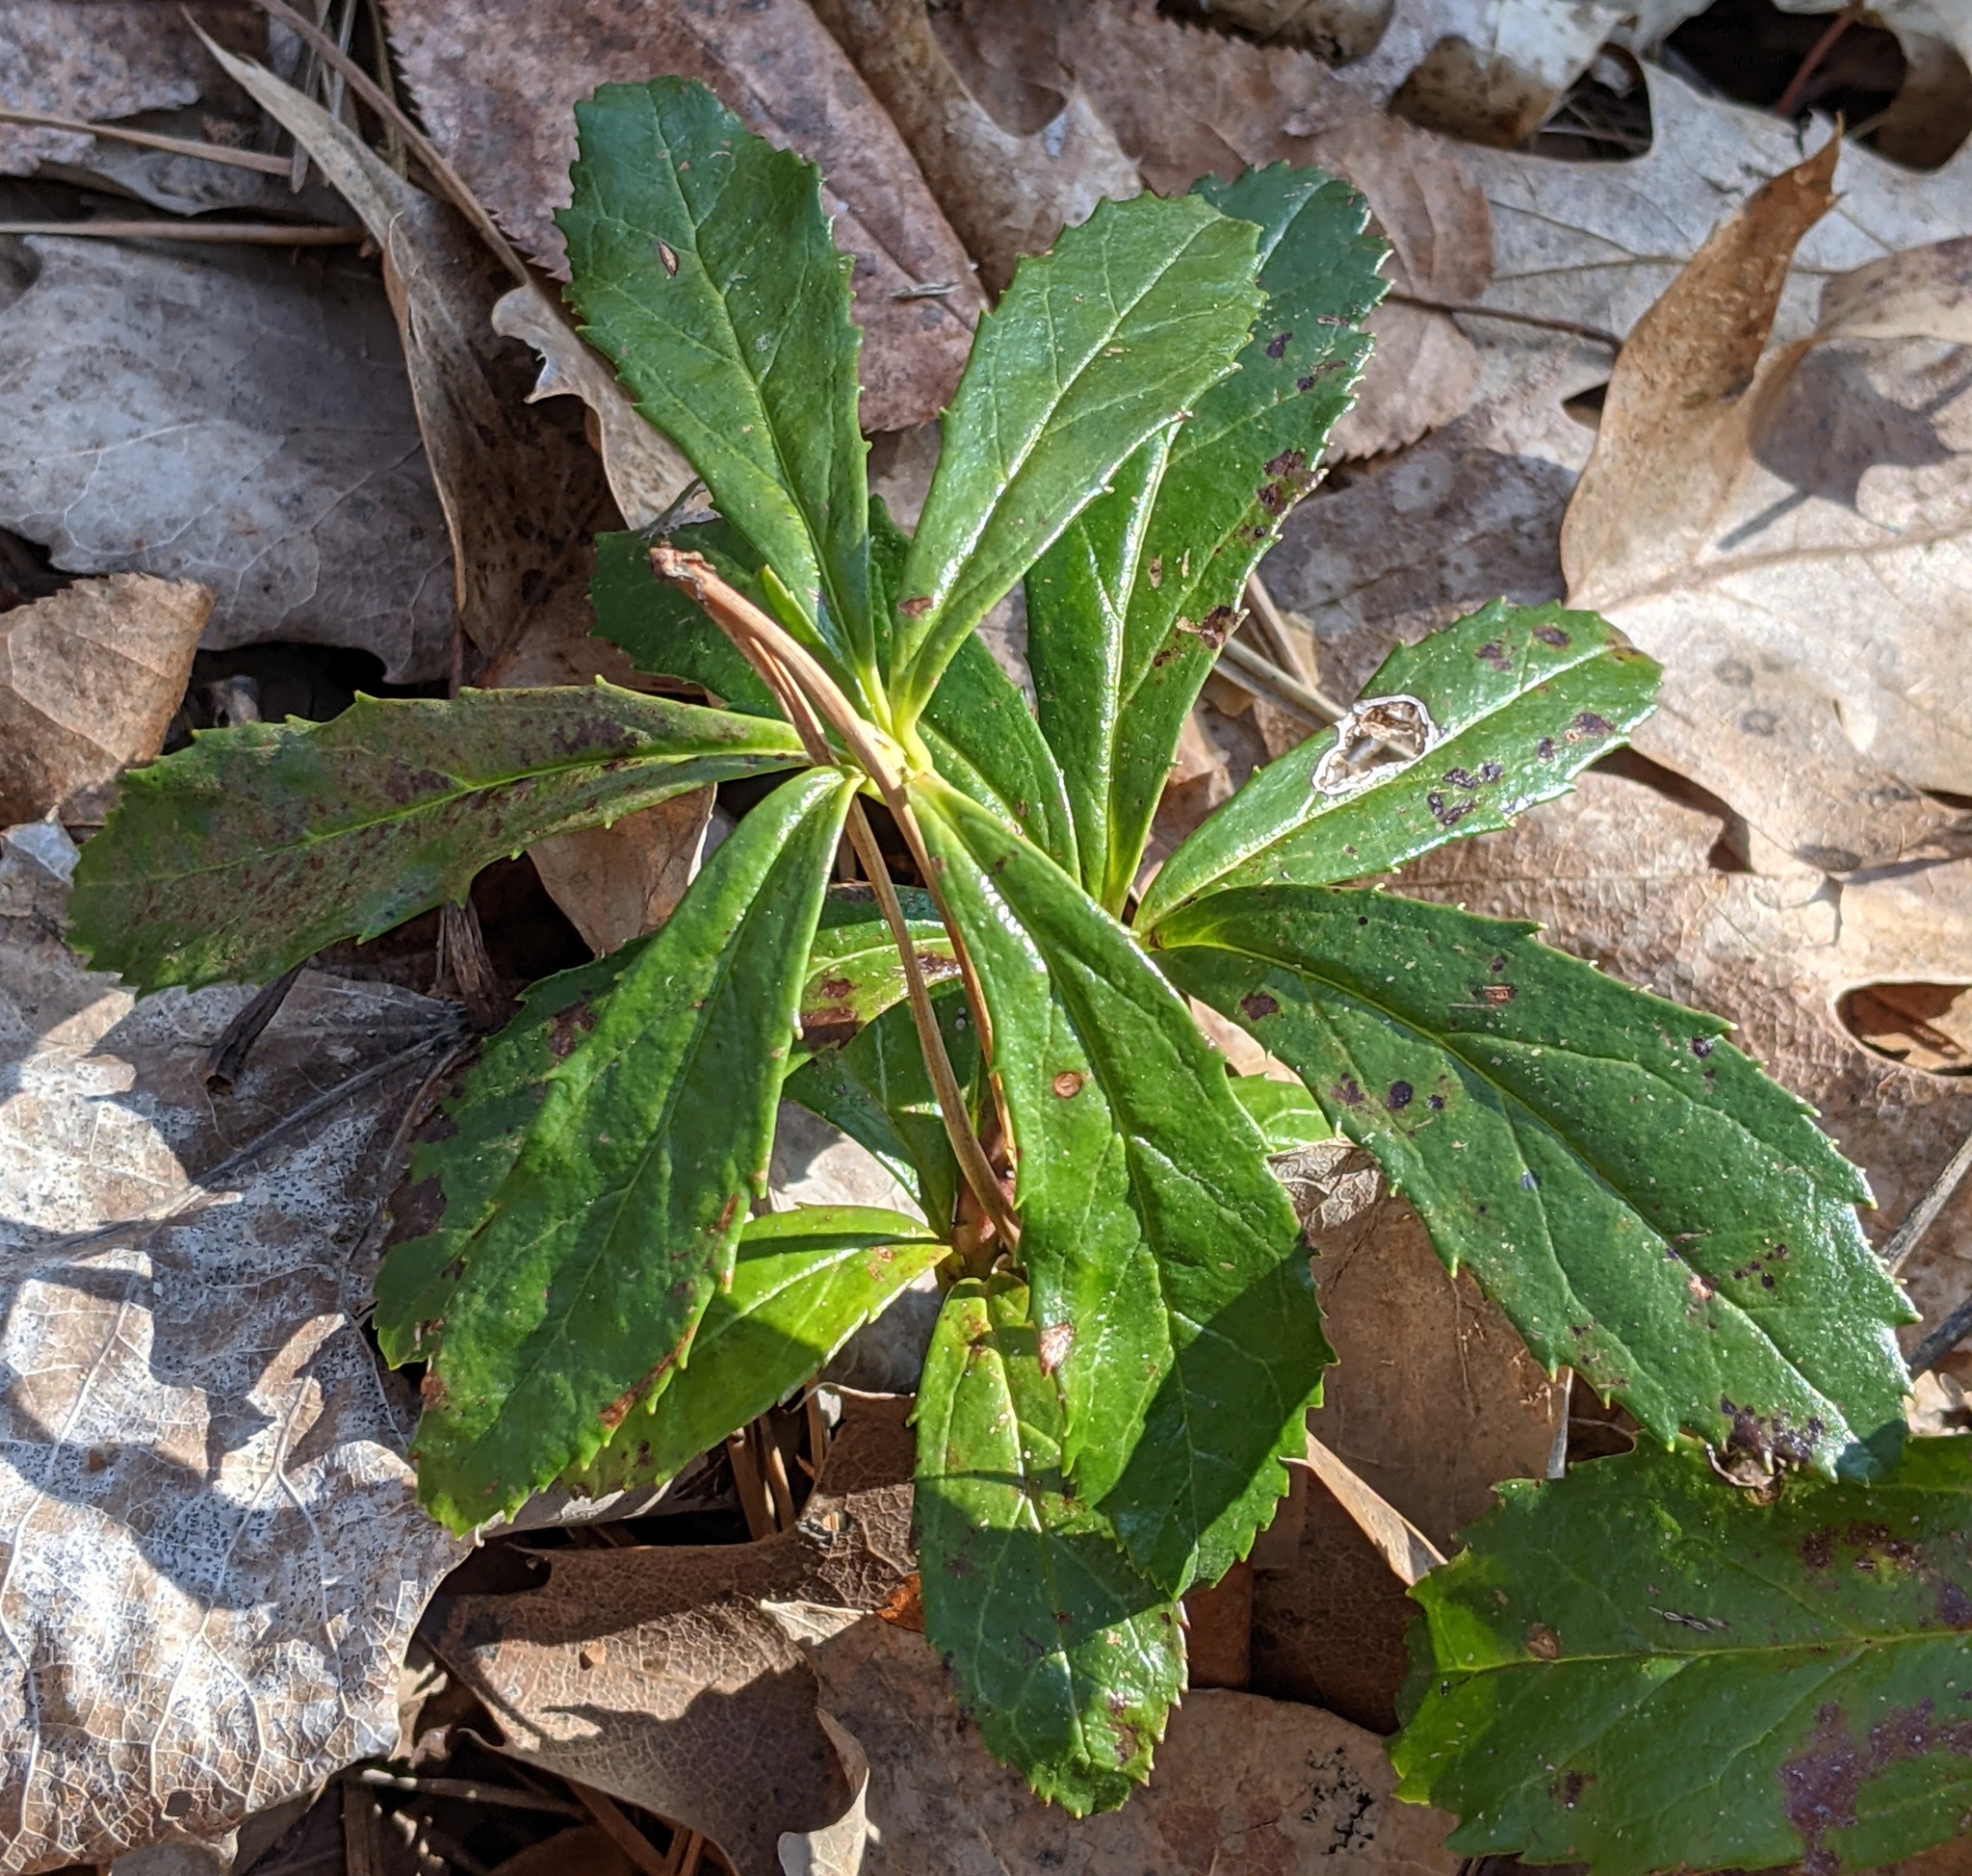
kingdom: Plantae
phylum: Tracheophyta
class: Magnoliopsida
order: Ericales
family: Ericaceae
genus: Chimaphila
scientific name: Chimaphila umbellata
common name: Pipsissewa
